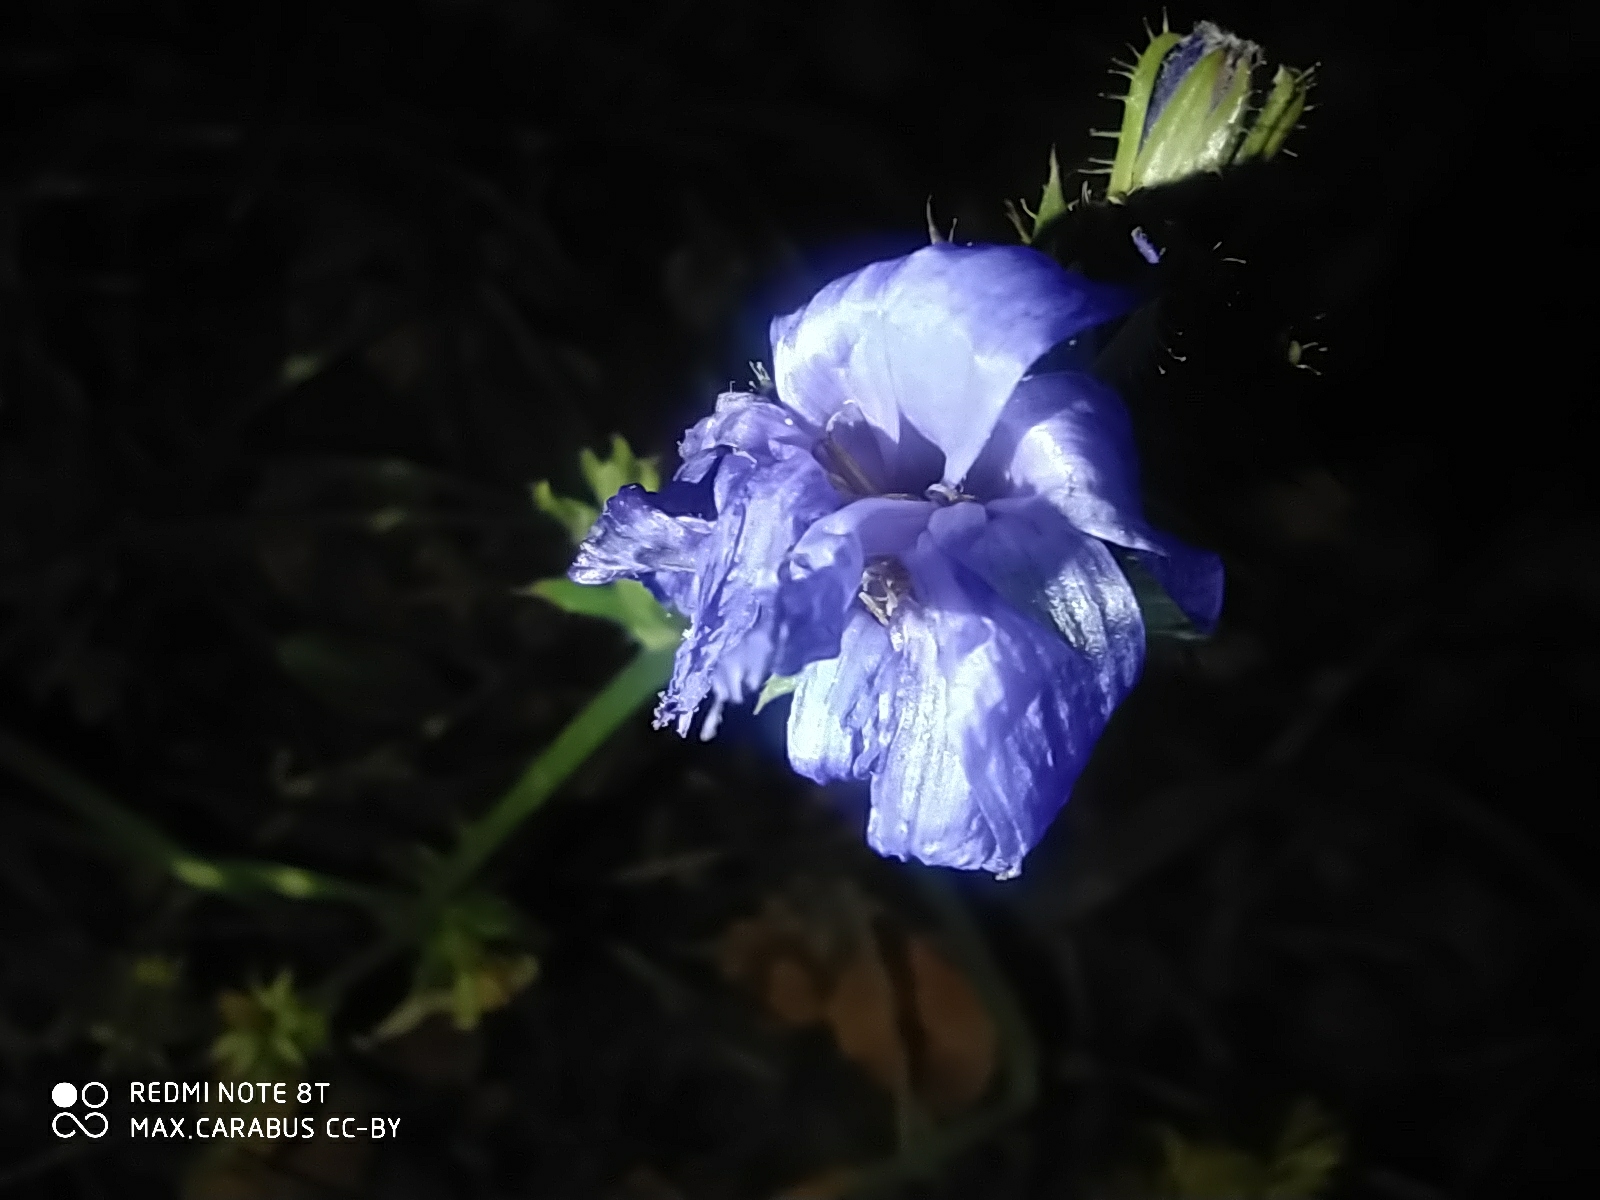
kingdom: Plantae
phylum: Tracheophyta
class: Magnoliopsida
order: Asterales
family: Asteraceae
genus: Cichorium
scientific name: Cichorium intybus
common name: Chicory
